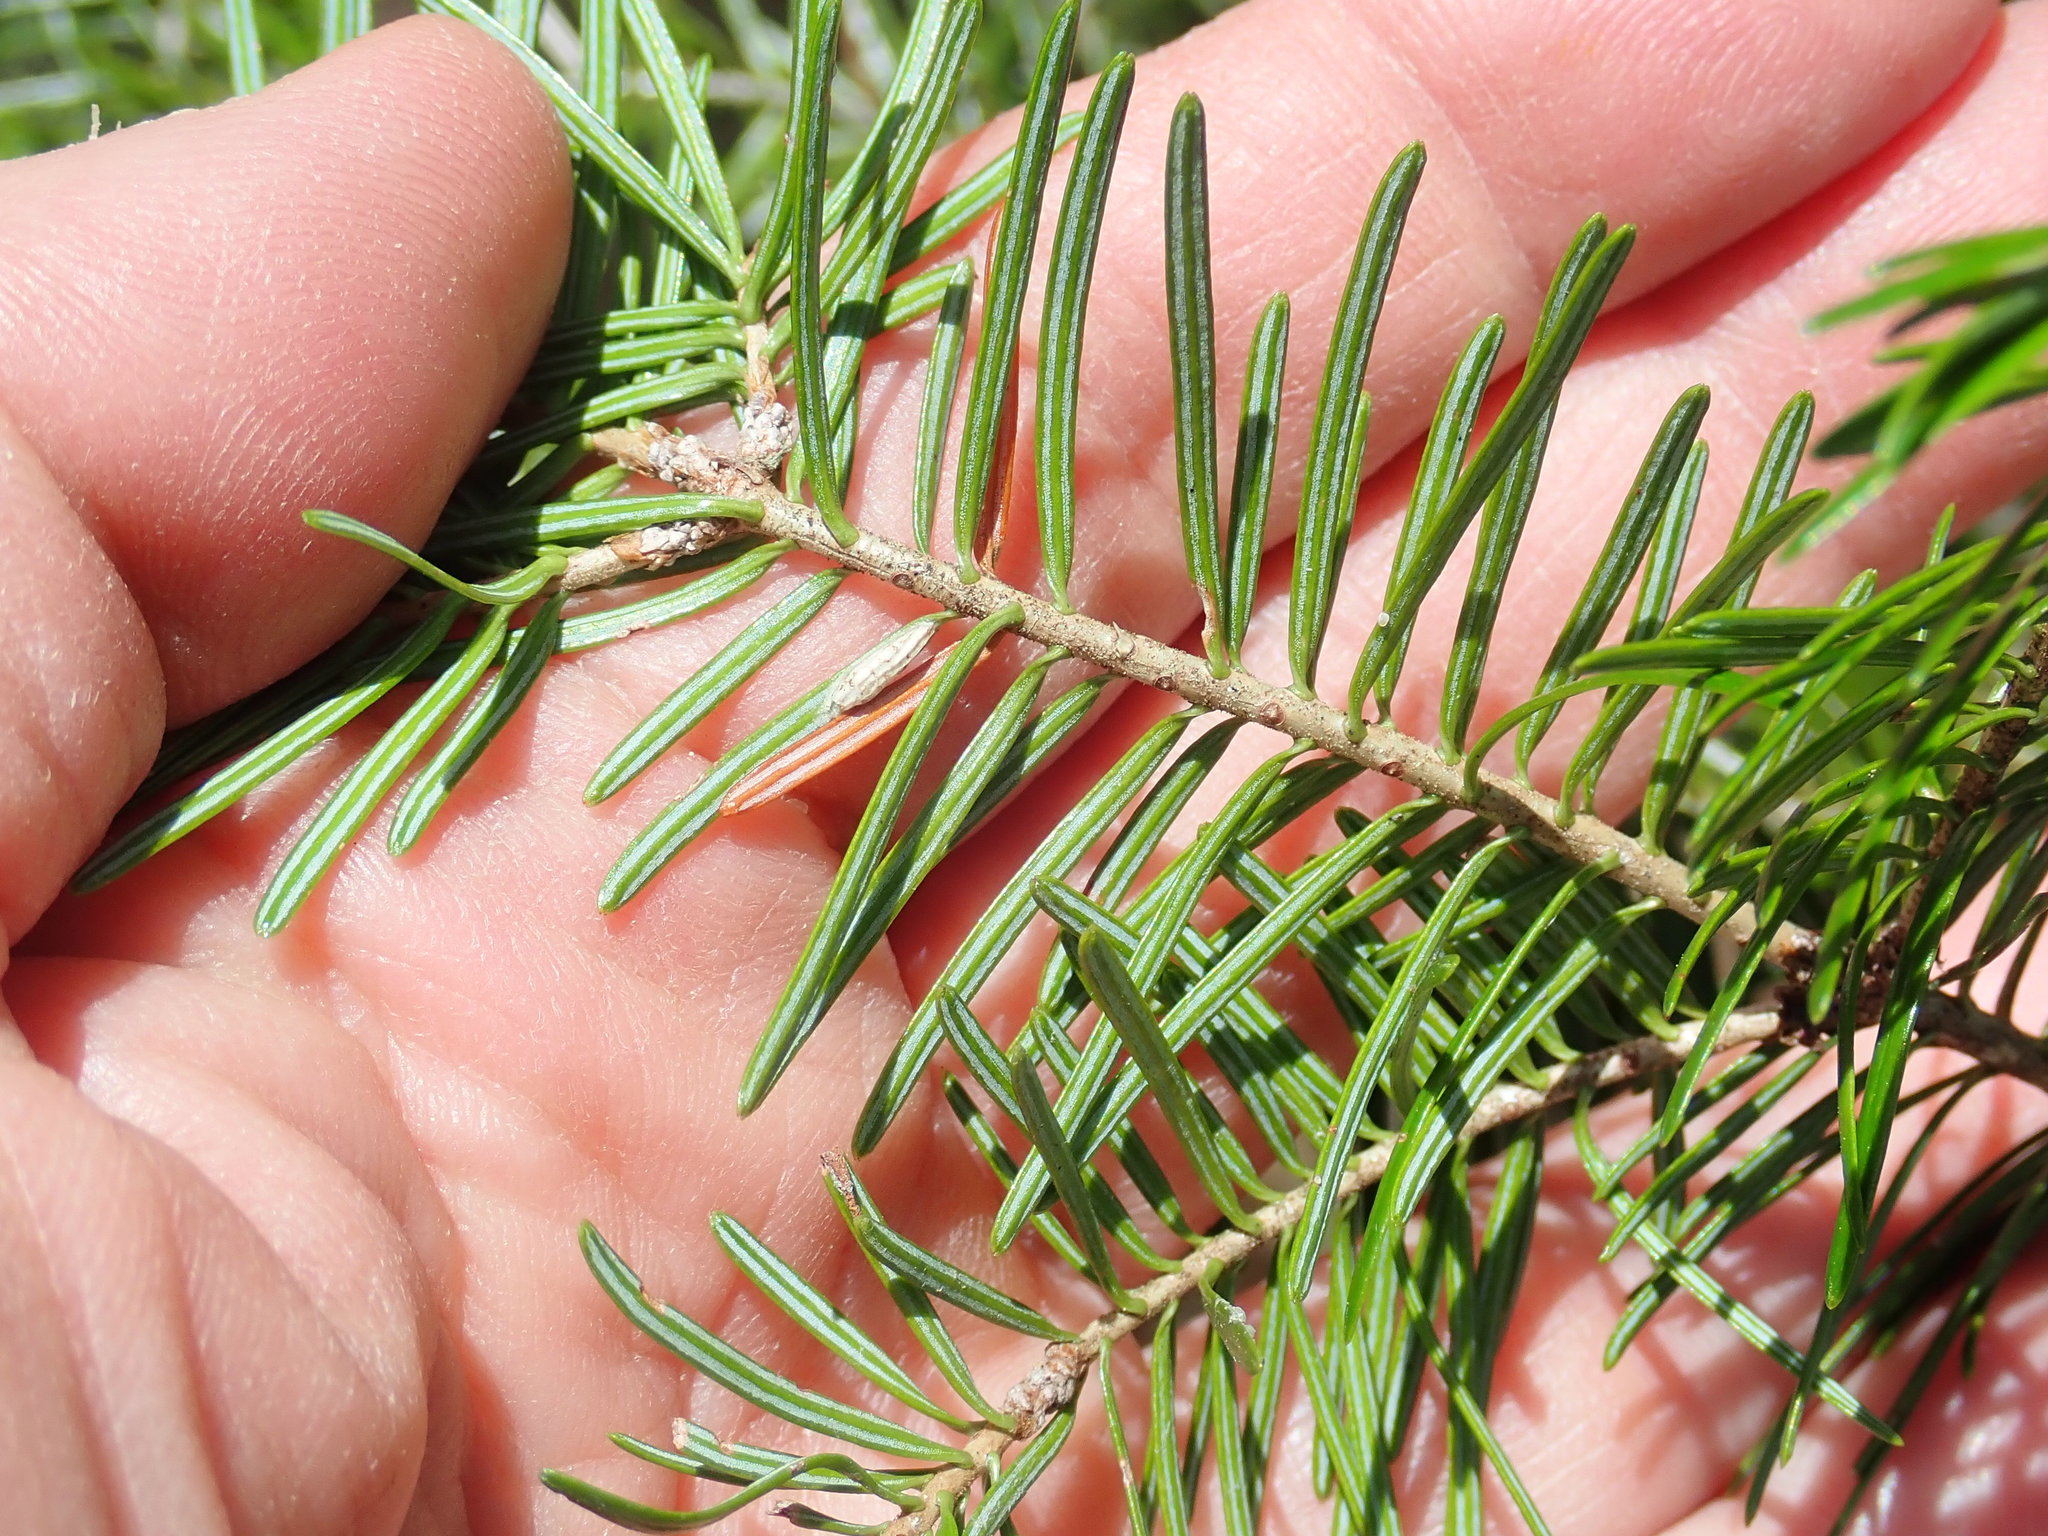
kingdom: Plantae
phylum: Tracheophyta
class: Pinopsida
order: Pinales
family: Pinaceae
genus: Abies
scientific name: Abies balsamea
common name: Balsam fir
